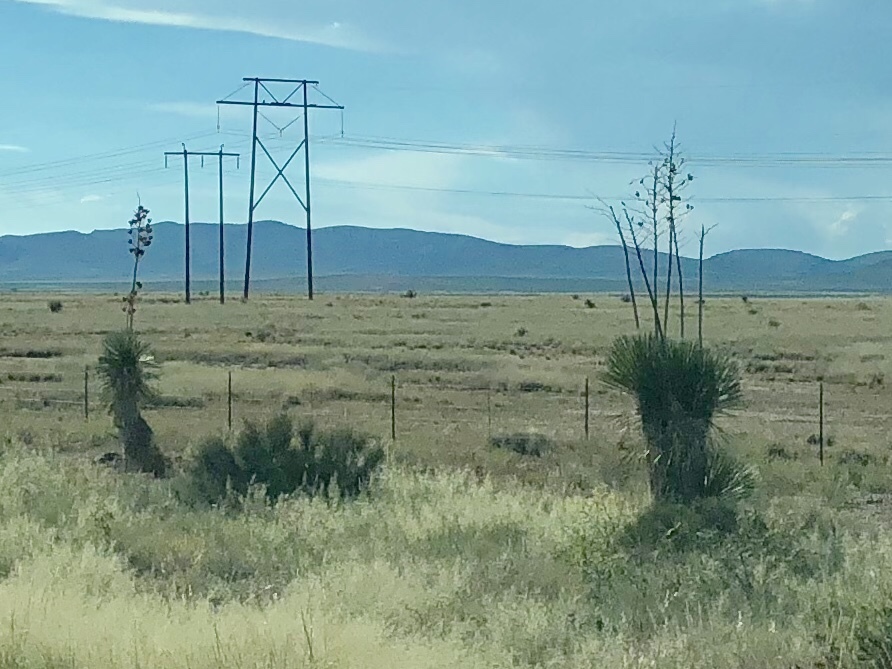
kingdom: Plantae
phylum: Tracheophyta
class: Liliopsida
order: Asparagales
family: Asparagaceae
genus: Yucca
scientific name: Yucca elata
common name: Palmella
